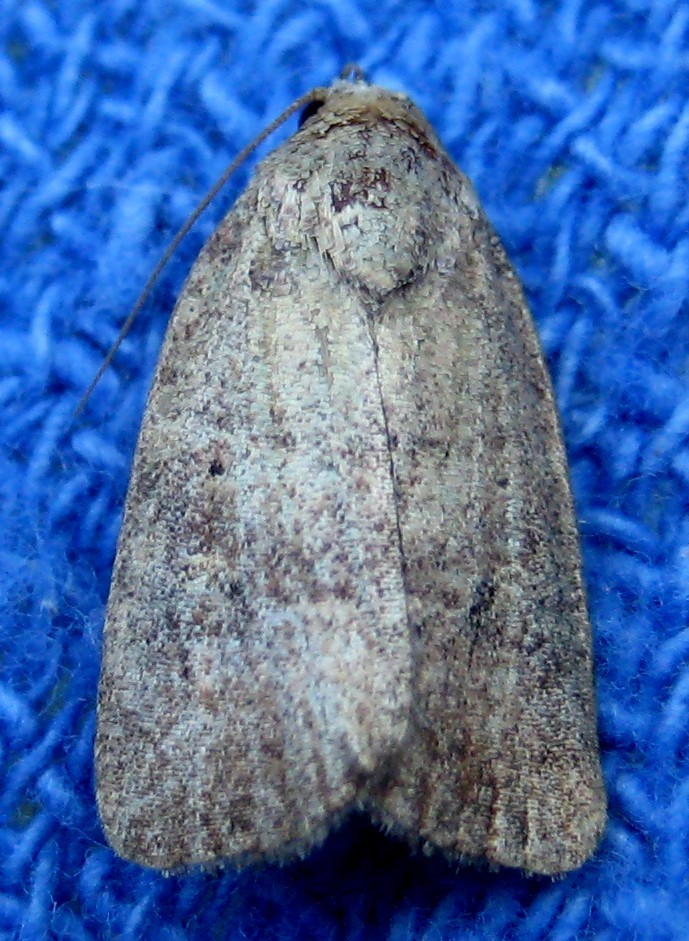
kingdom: Animalia
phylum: Arthropoda
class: Insecta
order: Lepidoptera
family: Noctuidae
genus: Athetis
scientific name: Athetis tarda
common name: Slowpoke moth
